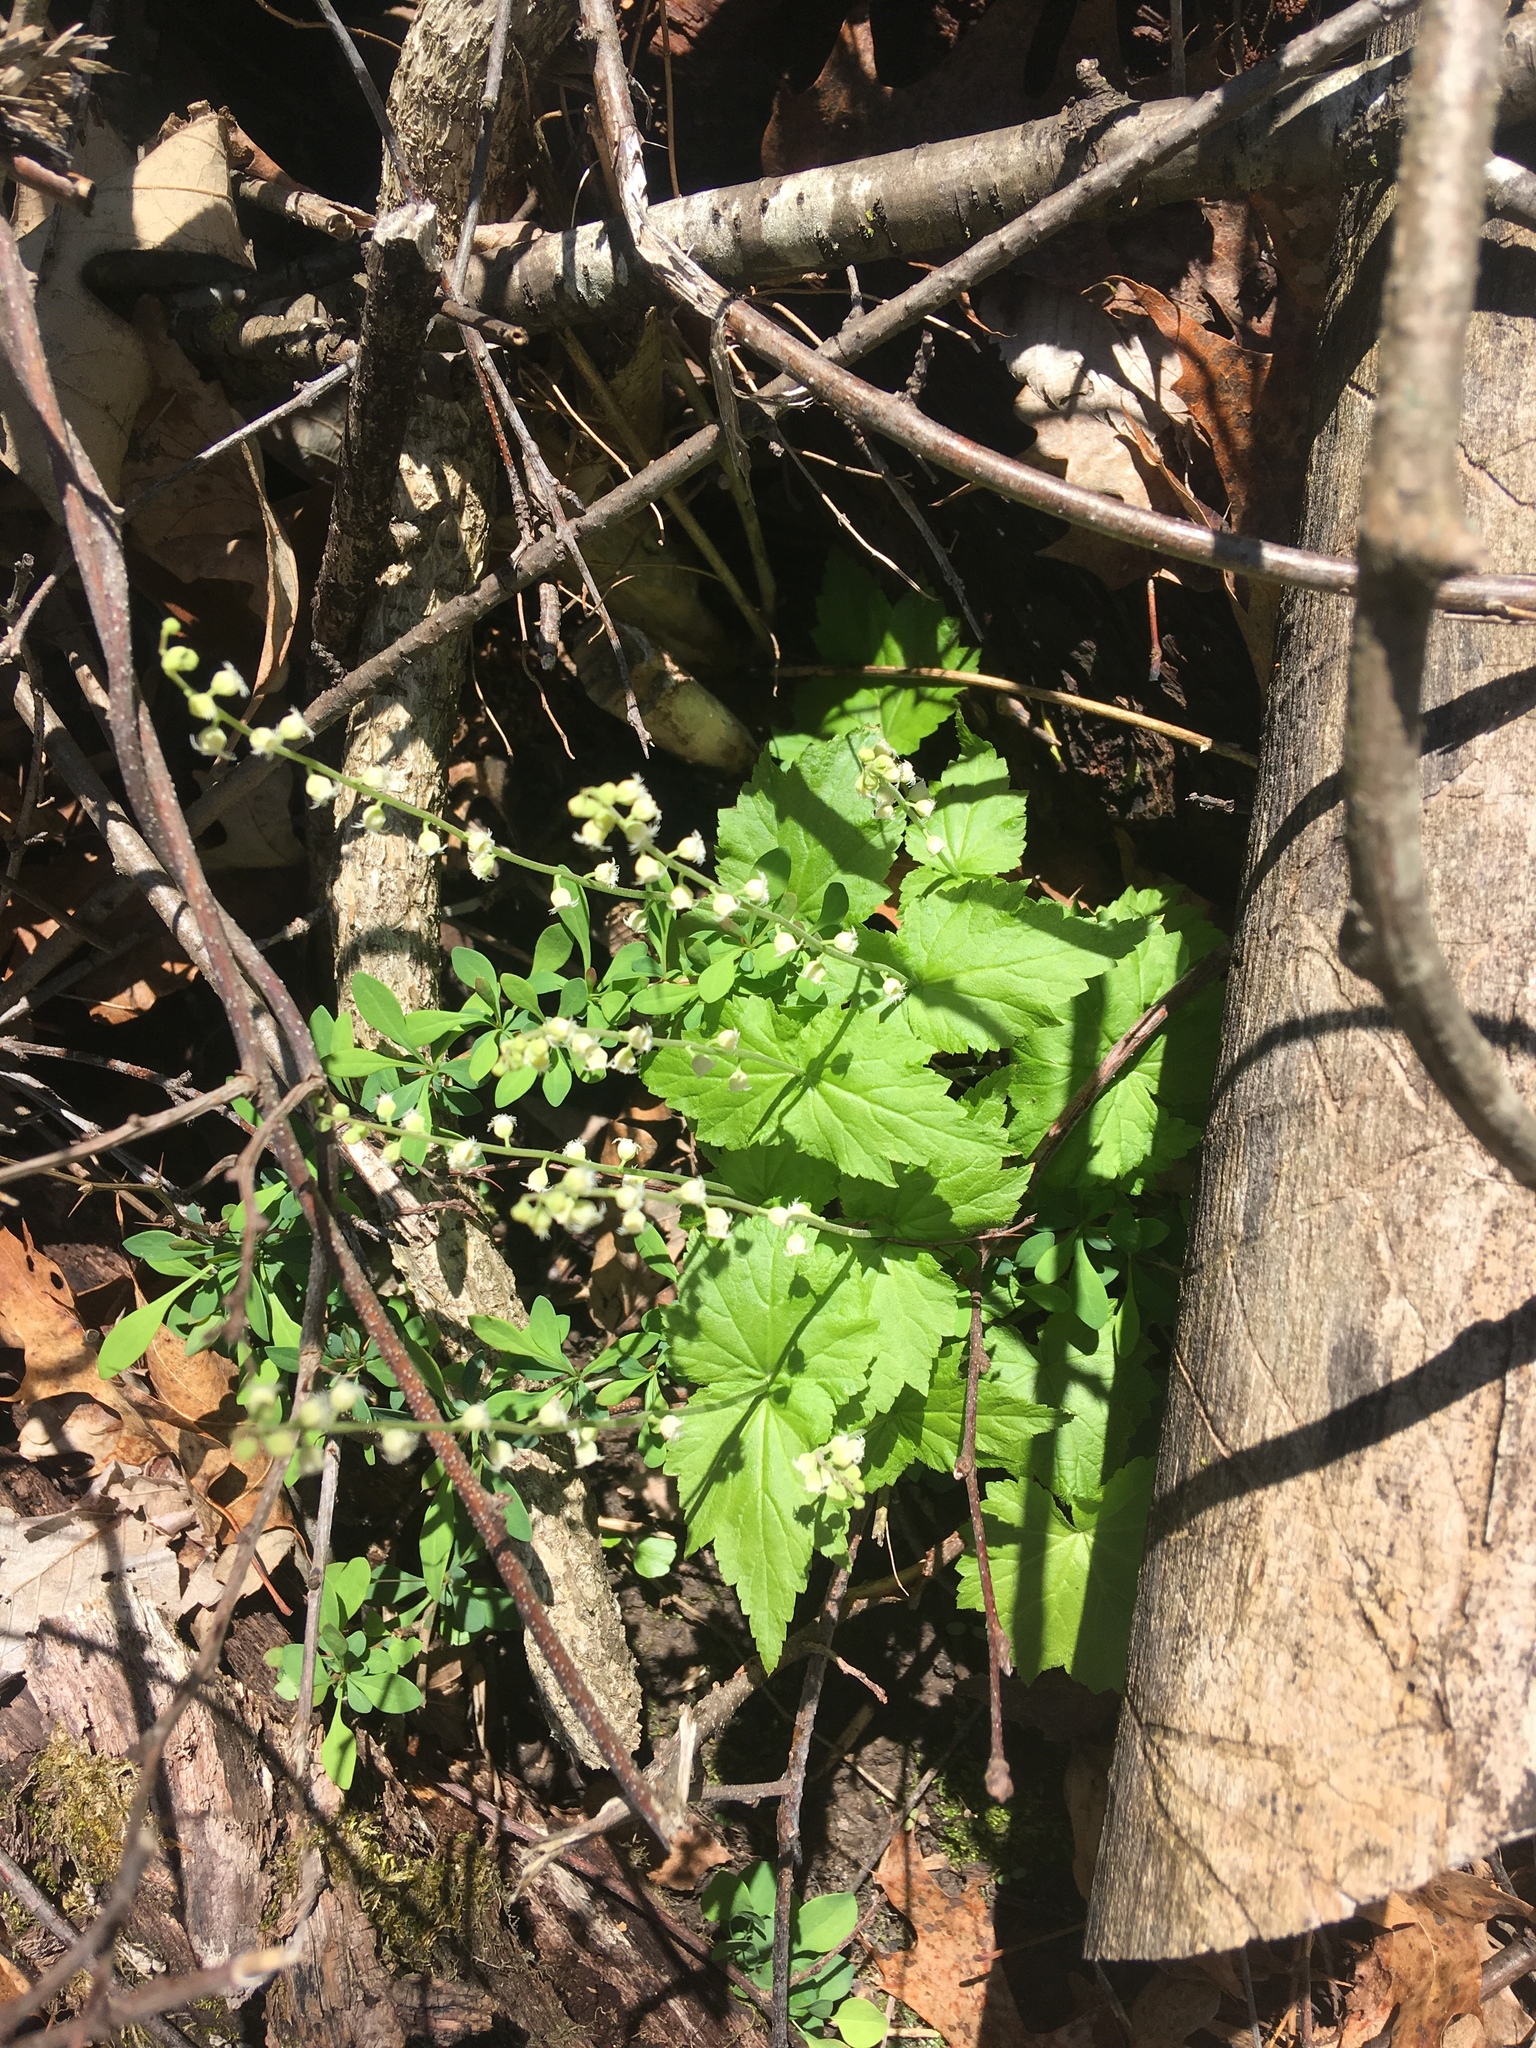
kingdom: Plantae
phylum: Tracheophyta
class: Magnoliopsida
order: Saxifragales
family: Saxifragaceae
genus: Mitella
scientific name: Mitella diphylla
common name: Coolwort
